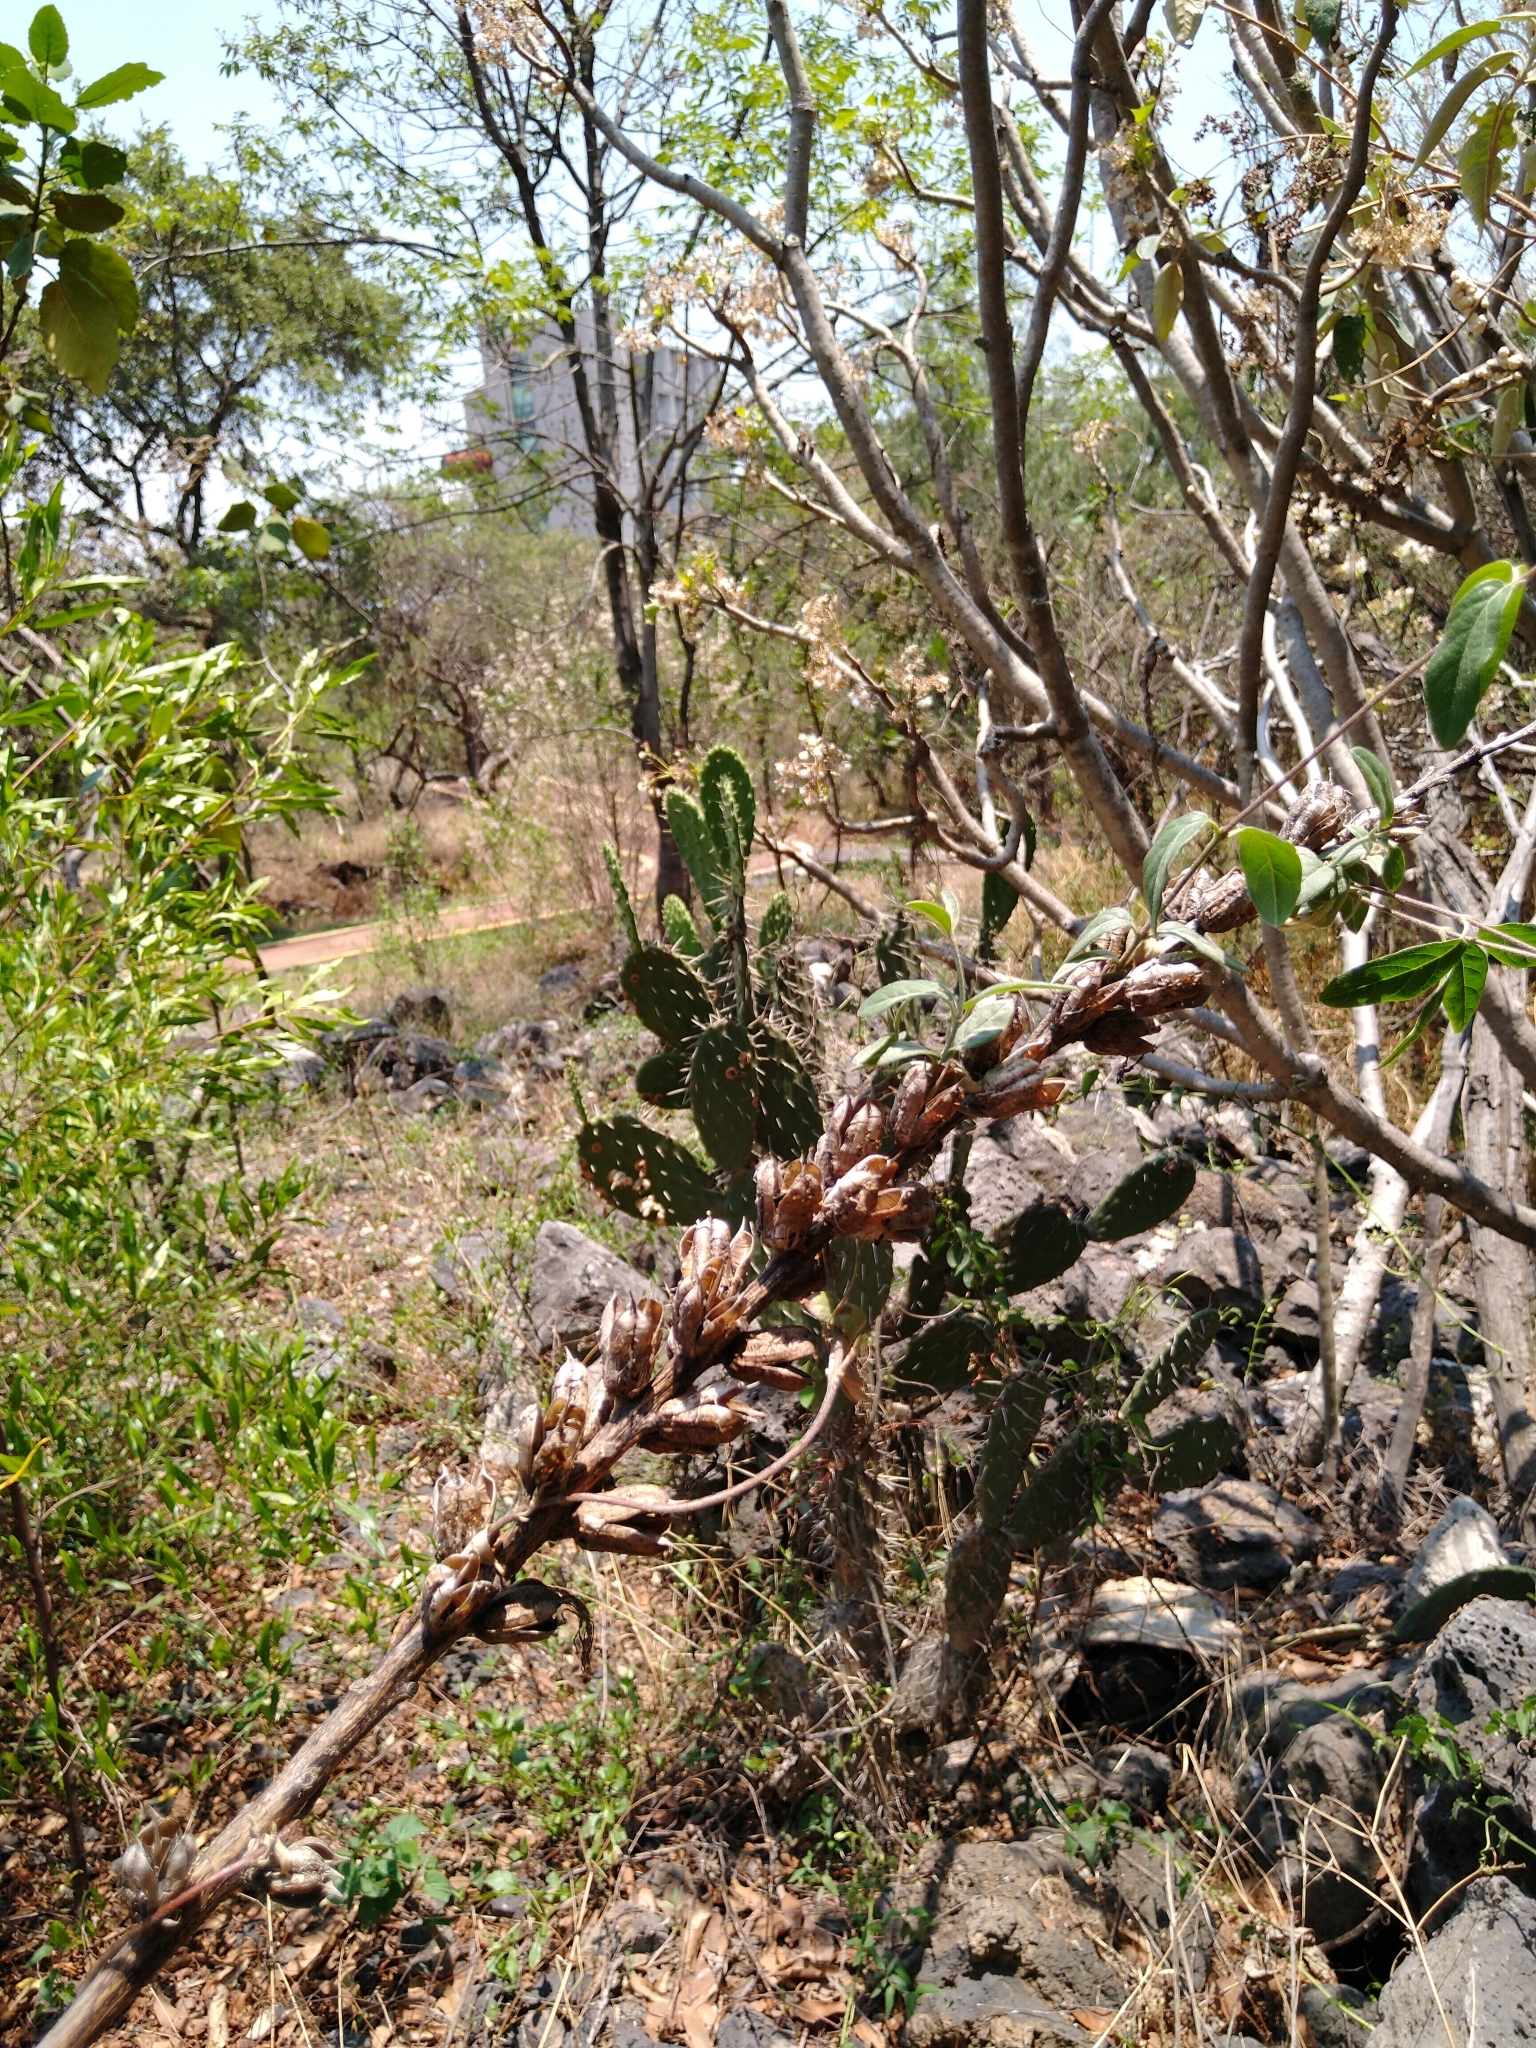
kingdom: Plantae
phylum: Tracheophyta
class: Liliopsida
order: Asparagales
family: Asparagaceae
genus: Agave
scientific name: Agave scabra
